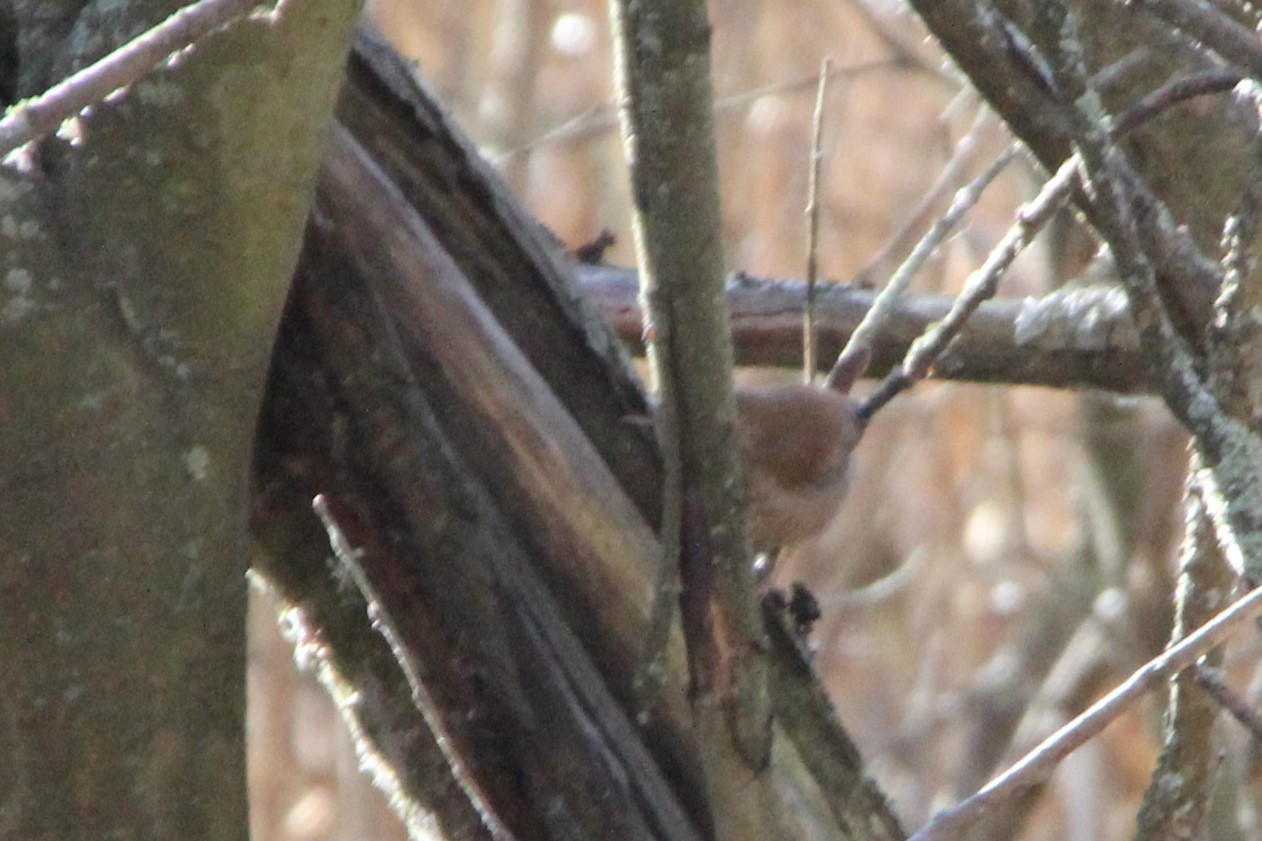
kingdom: Animalia
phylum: Chordata
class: Aves
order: Passeriformes
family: Troglodytidae
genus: Troglodytes
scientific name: Troglodytes troglodytes
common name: Eurasian wren
